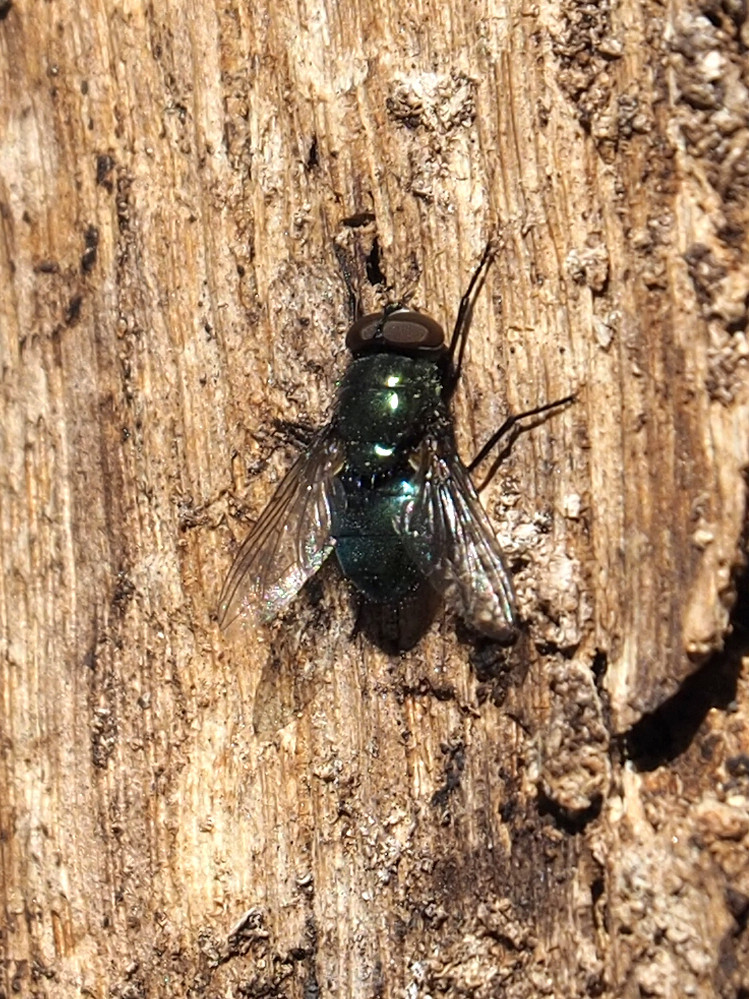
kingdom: Animalia
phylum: Arthropoda
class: Insecta
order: Diptera
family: Calliphoridae
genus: Phormia
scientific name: Phormia regina
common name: Black blow fly
